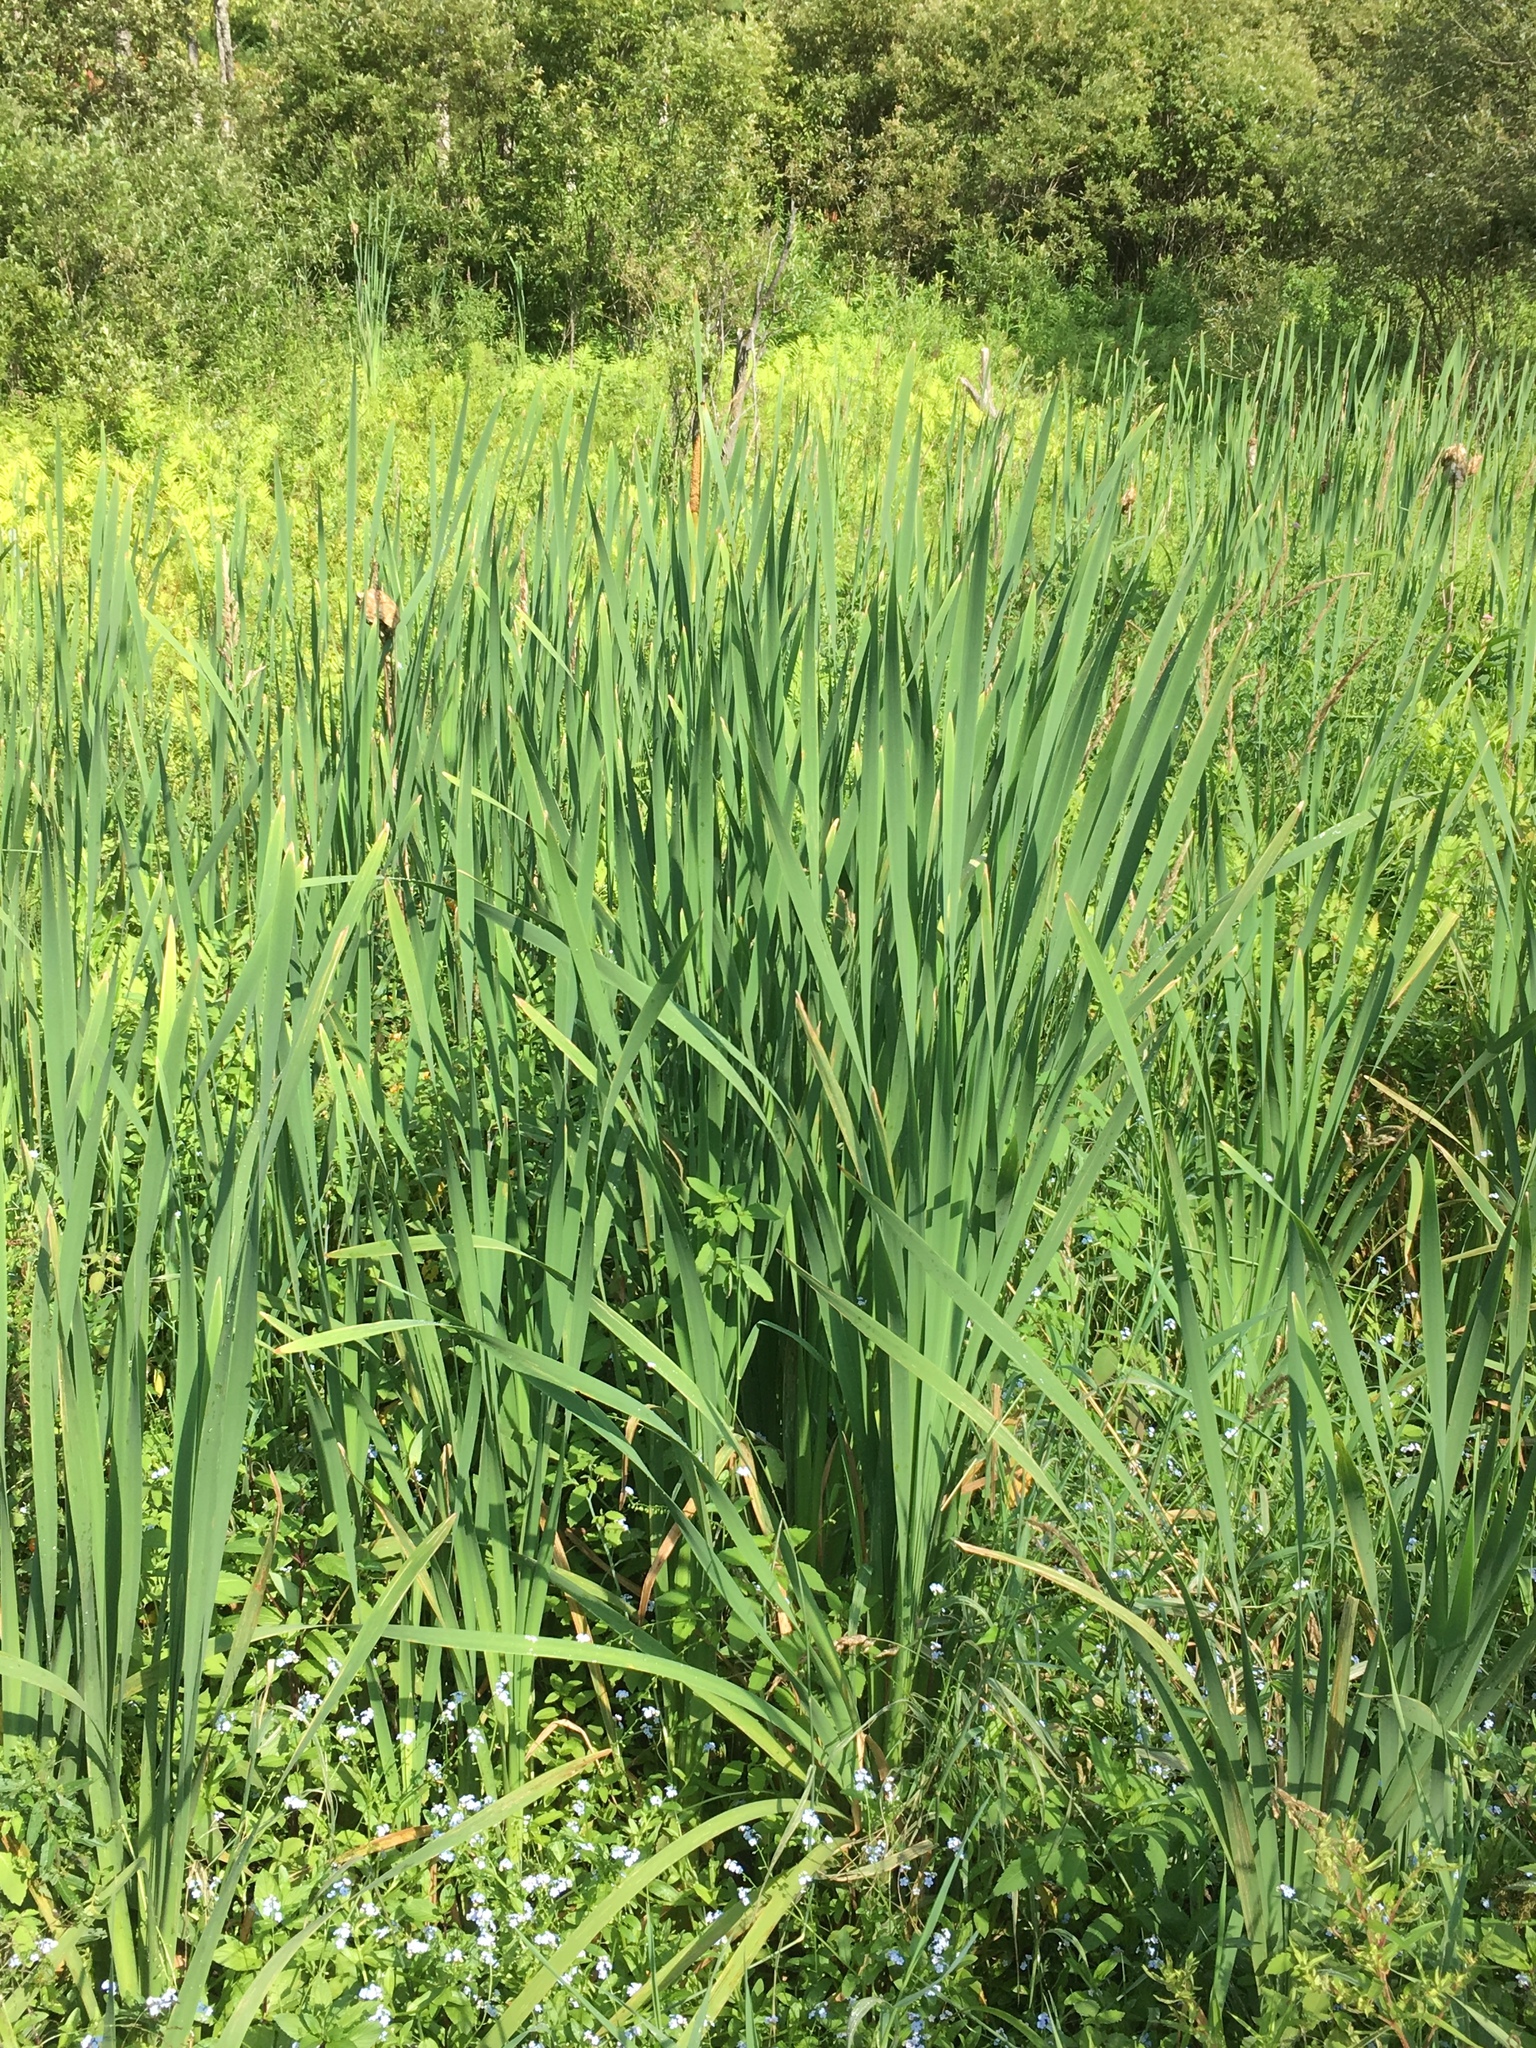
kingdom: Plantae
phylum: Tracheophyta
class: Liliopsida
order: Poales
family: Typhaceae
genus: Typha
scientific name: Typha latifolia
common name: Broadleaf cattail
